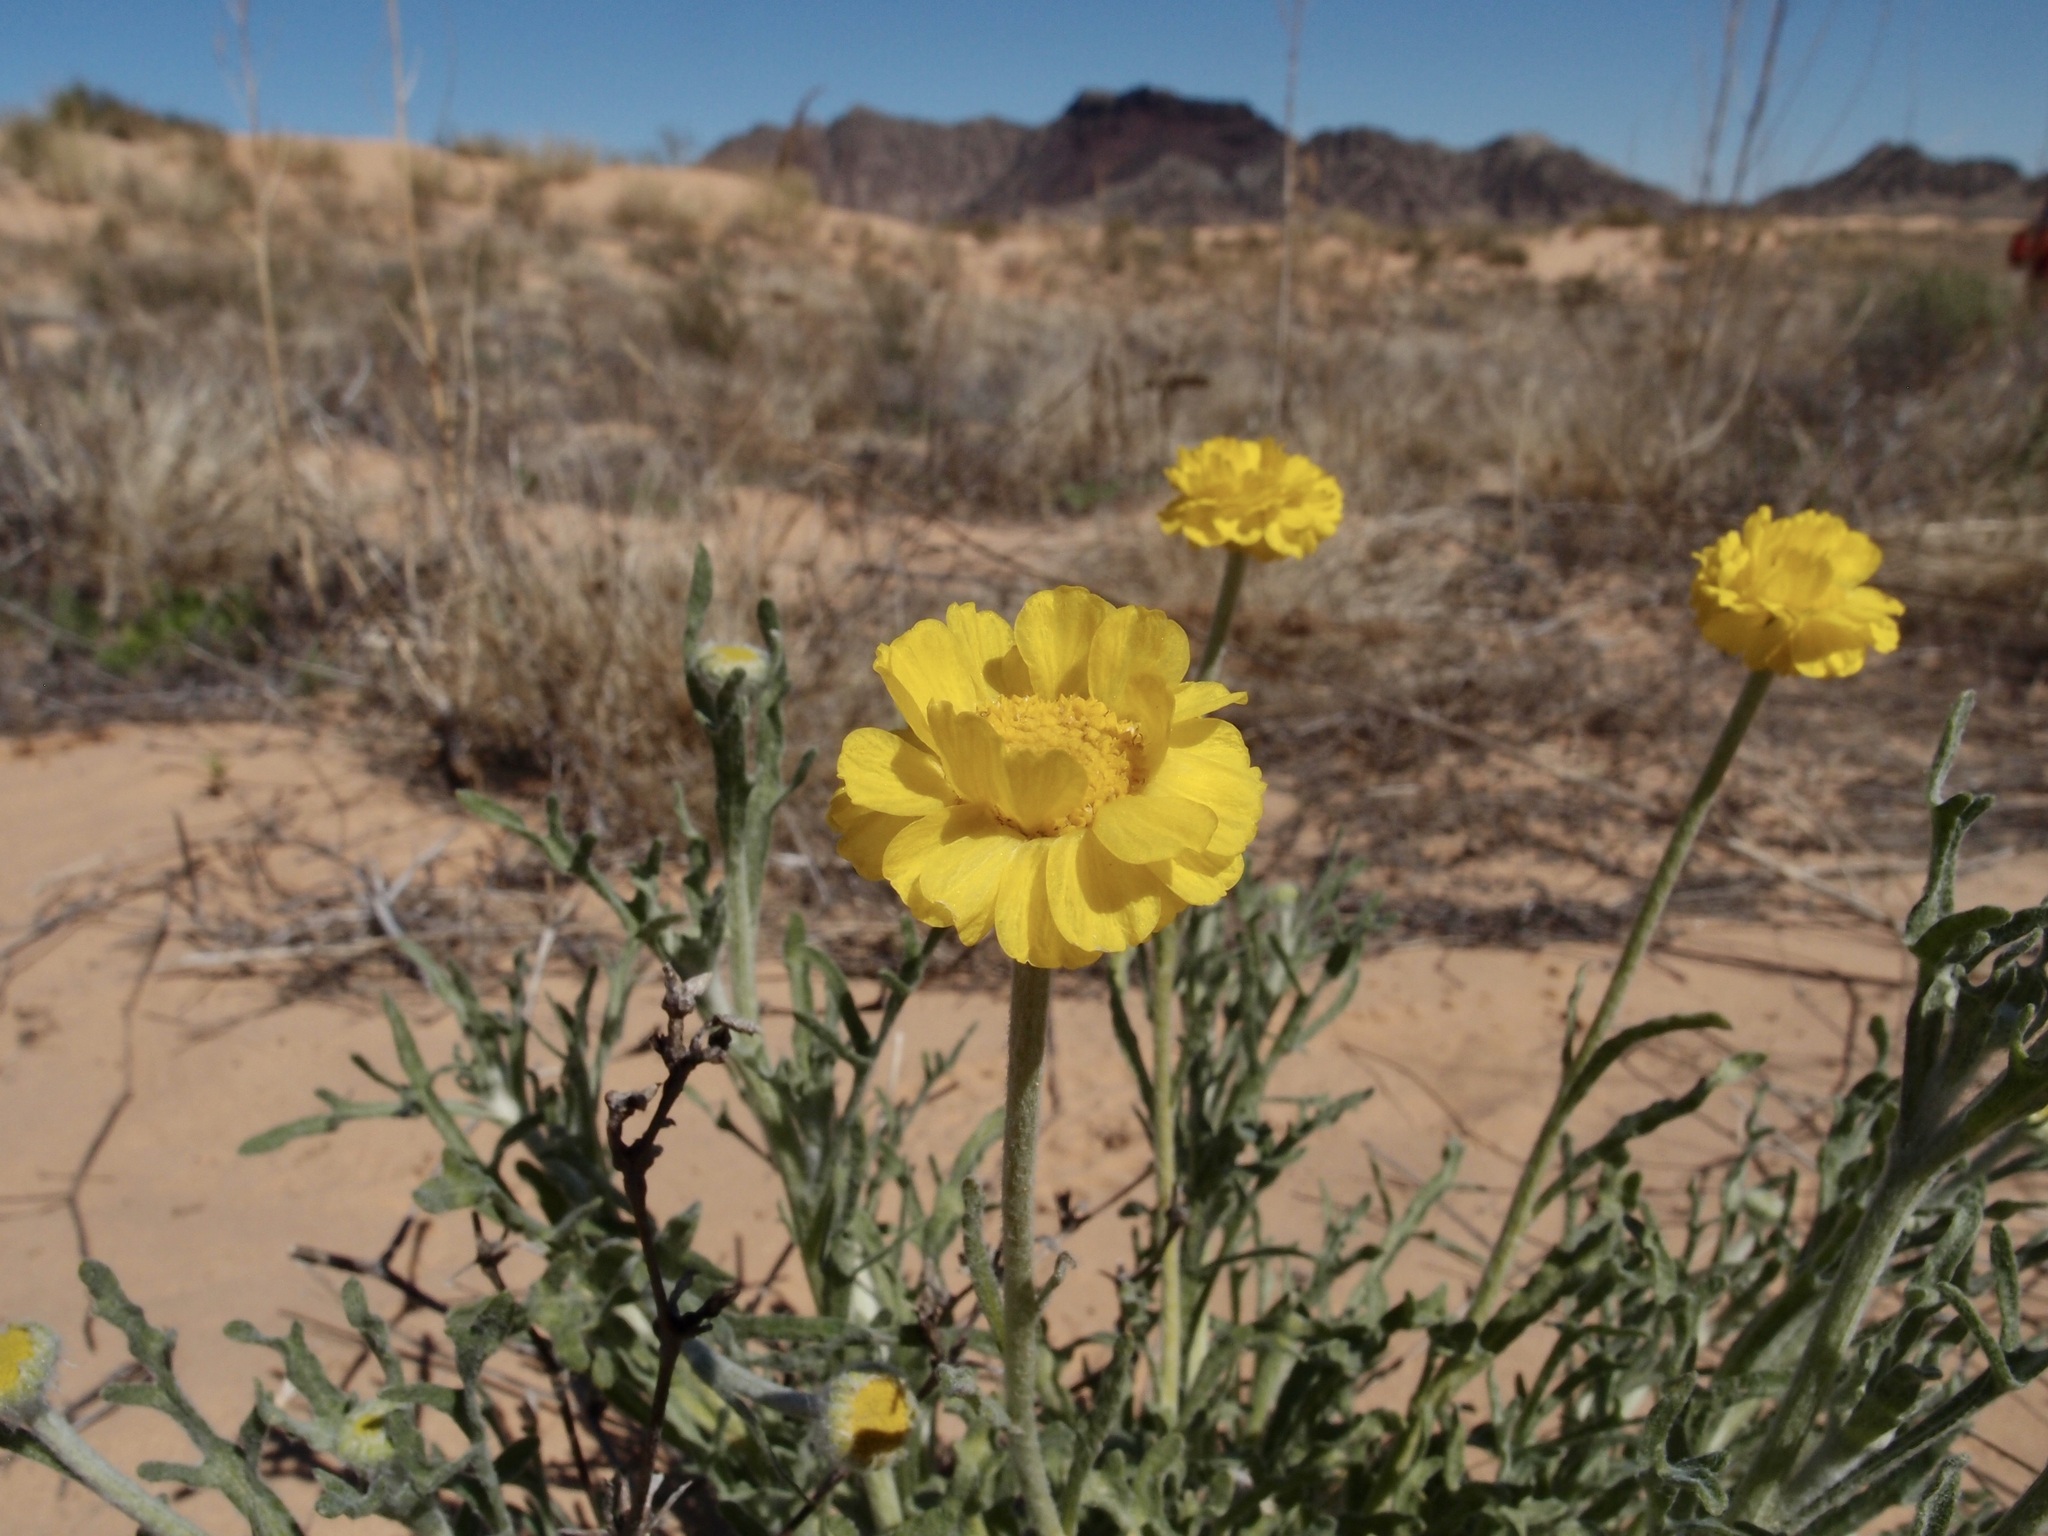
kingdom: Plantae
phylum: Tracheophyta
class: Magnoliopsida
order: Asterales
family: Asteraceae
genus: Baileya
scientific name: Baileya pleniradiata
